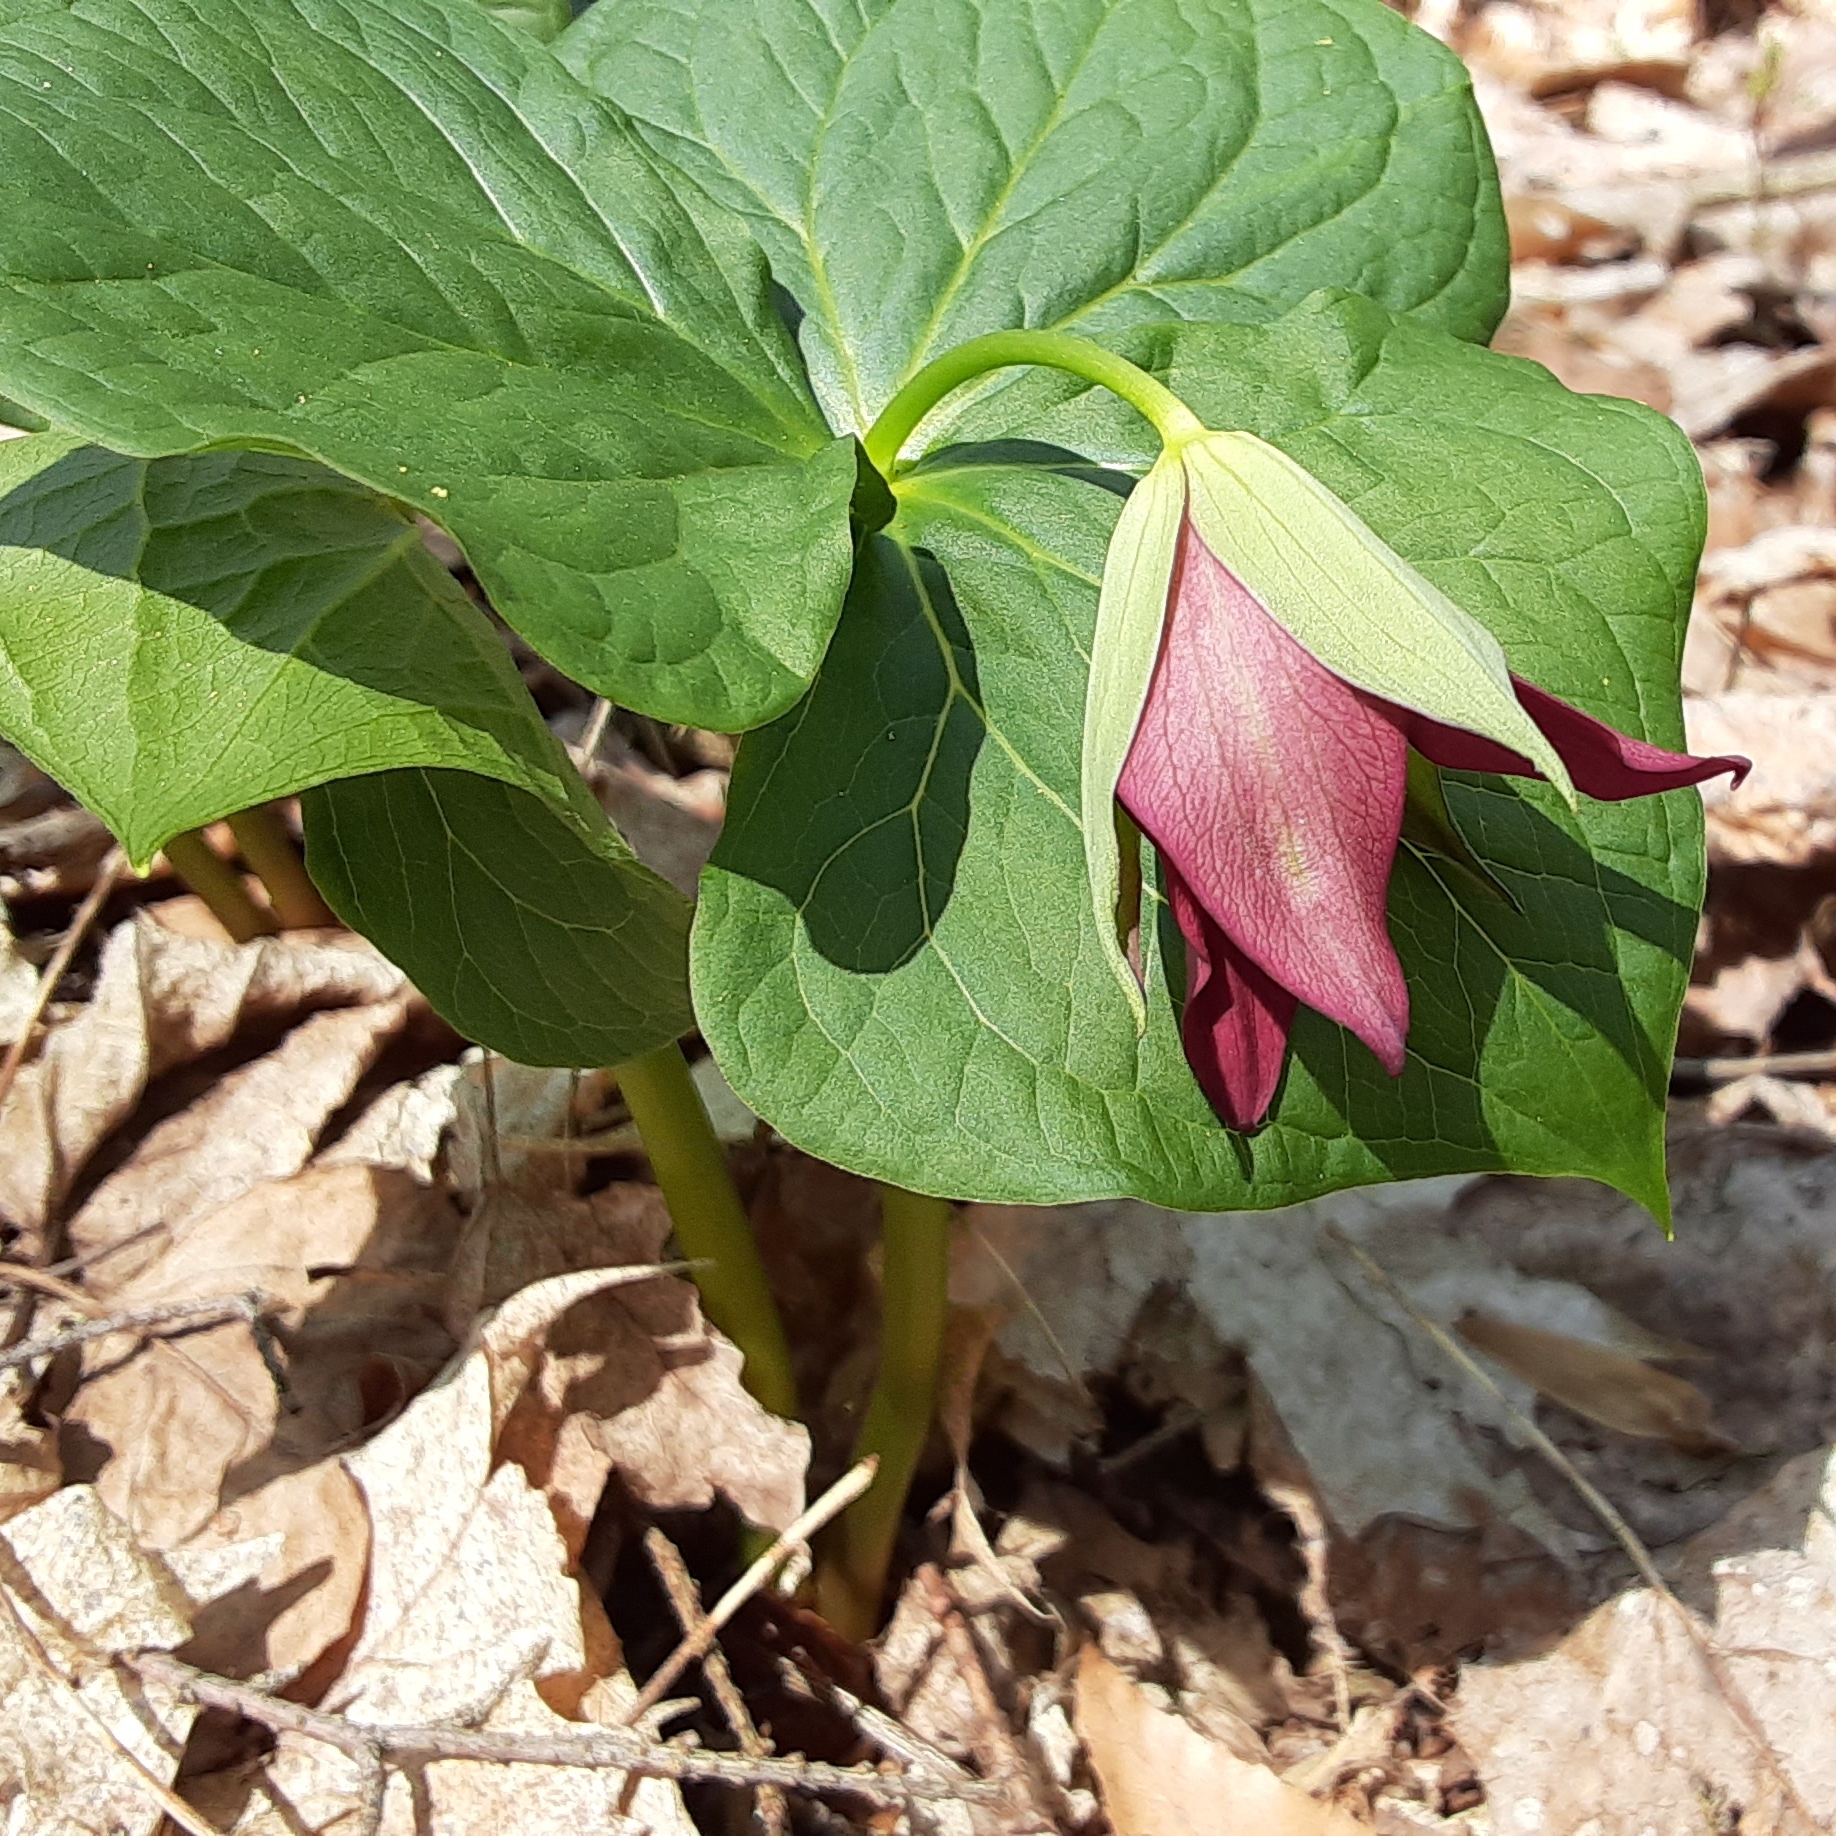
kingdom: Plantae
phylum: Tracheophyta
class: Liliopsida
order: Liliales
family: Melanthiaceae
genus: Trillium
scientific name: Trillium erectum
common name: Purple trillium
